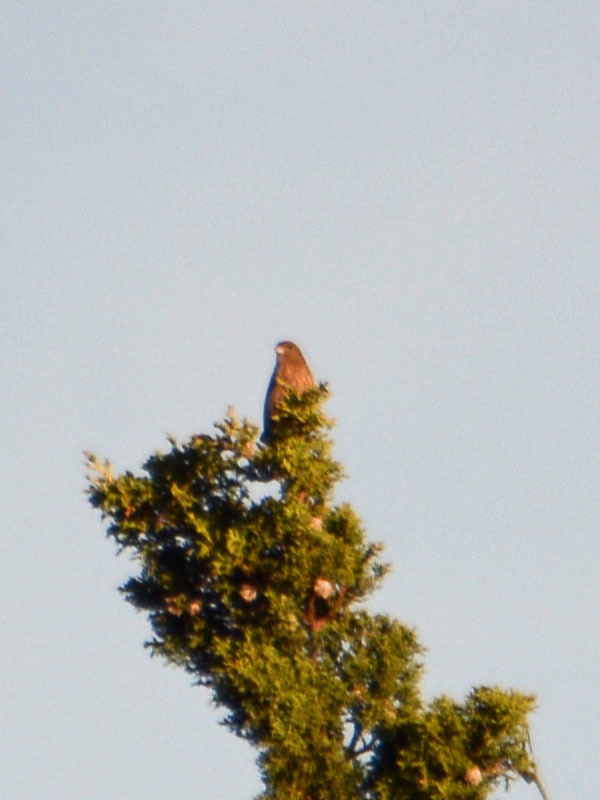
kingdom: Animalia
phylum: Chordata
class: Aves
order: Passeriformes
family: Fringillidae
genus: Haemorhous
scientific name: Haemorhous mexicanus
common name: House finch
